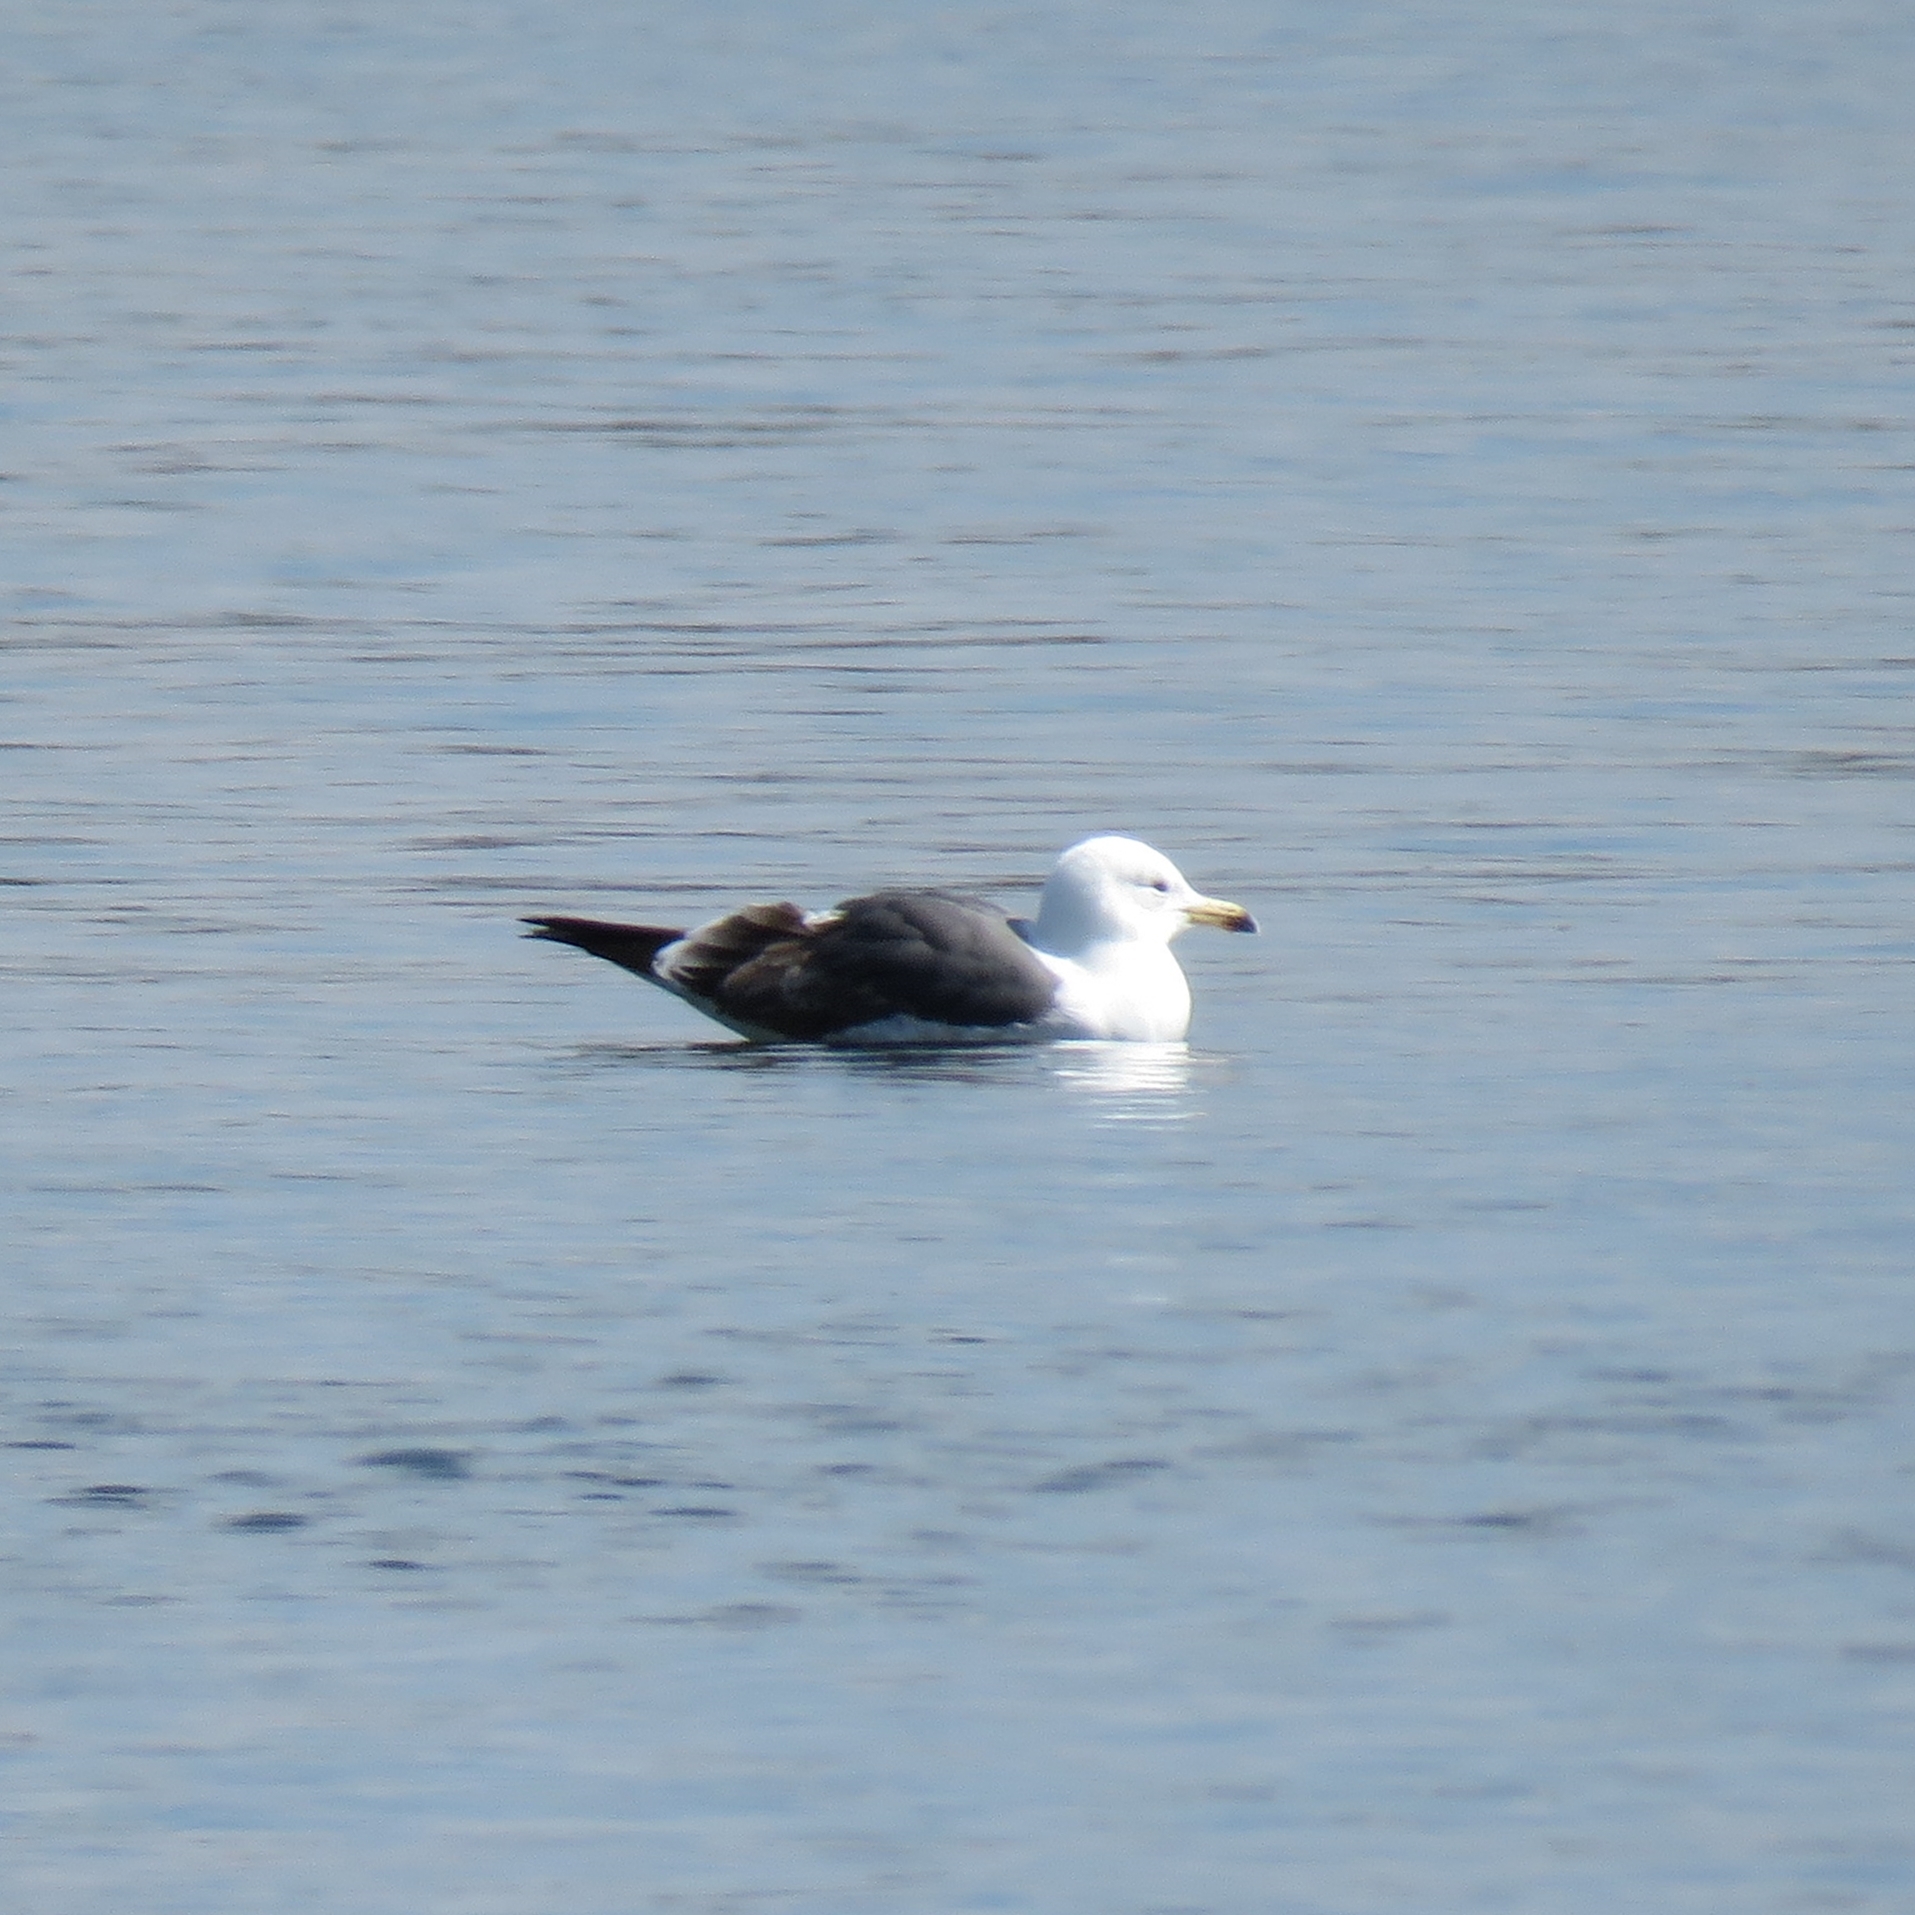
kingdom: Animalia
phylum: Chordata
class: Aves
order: Charadriiformes
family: Laridae
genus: Larus
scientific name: Larus fuscus
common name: Lesser black-backed gull
